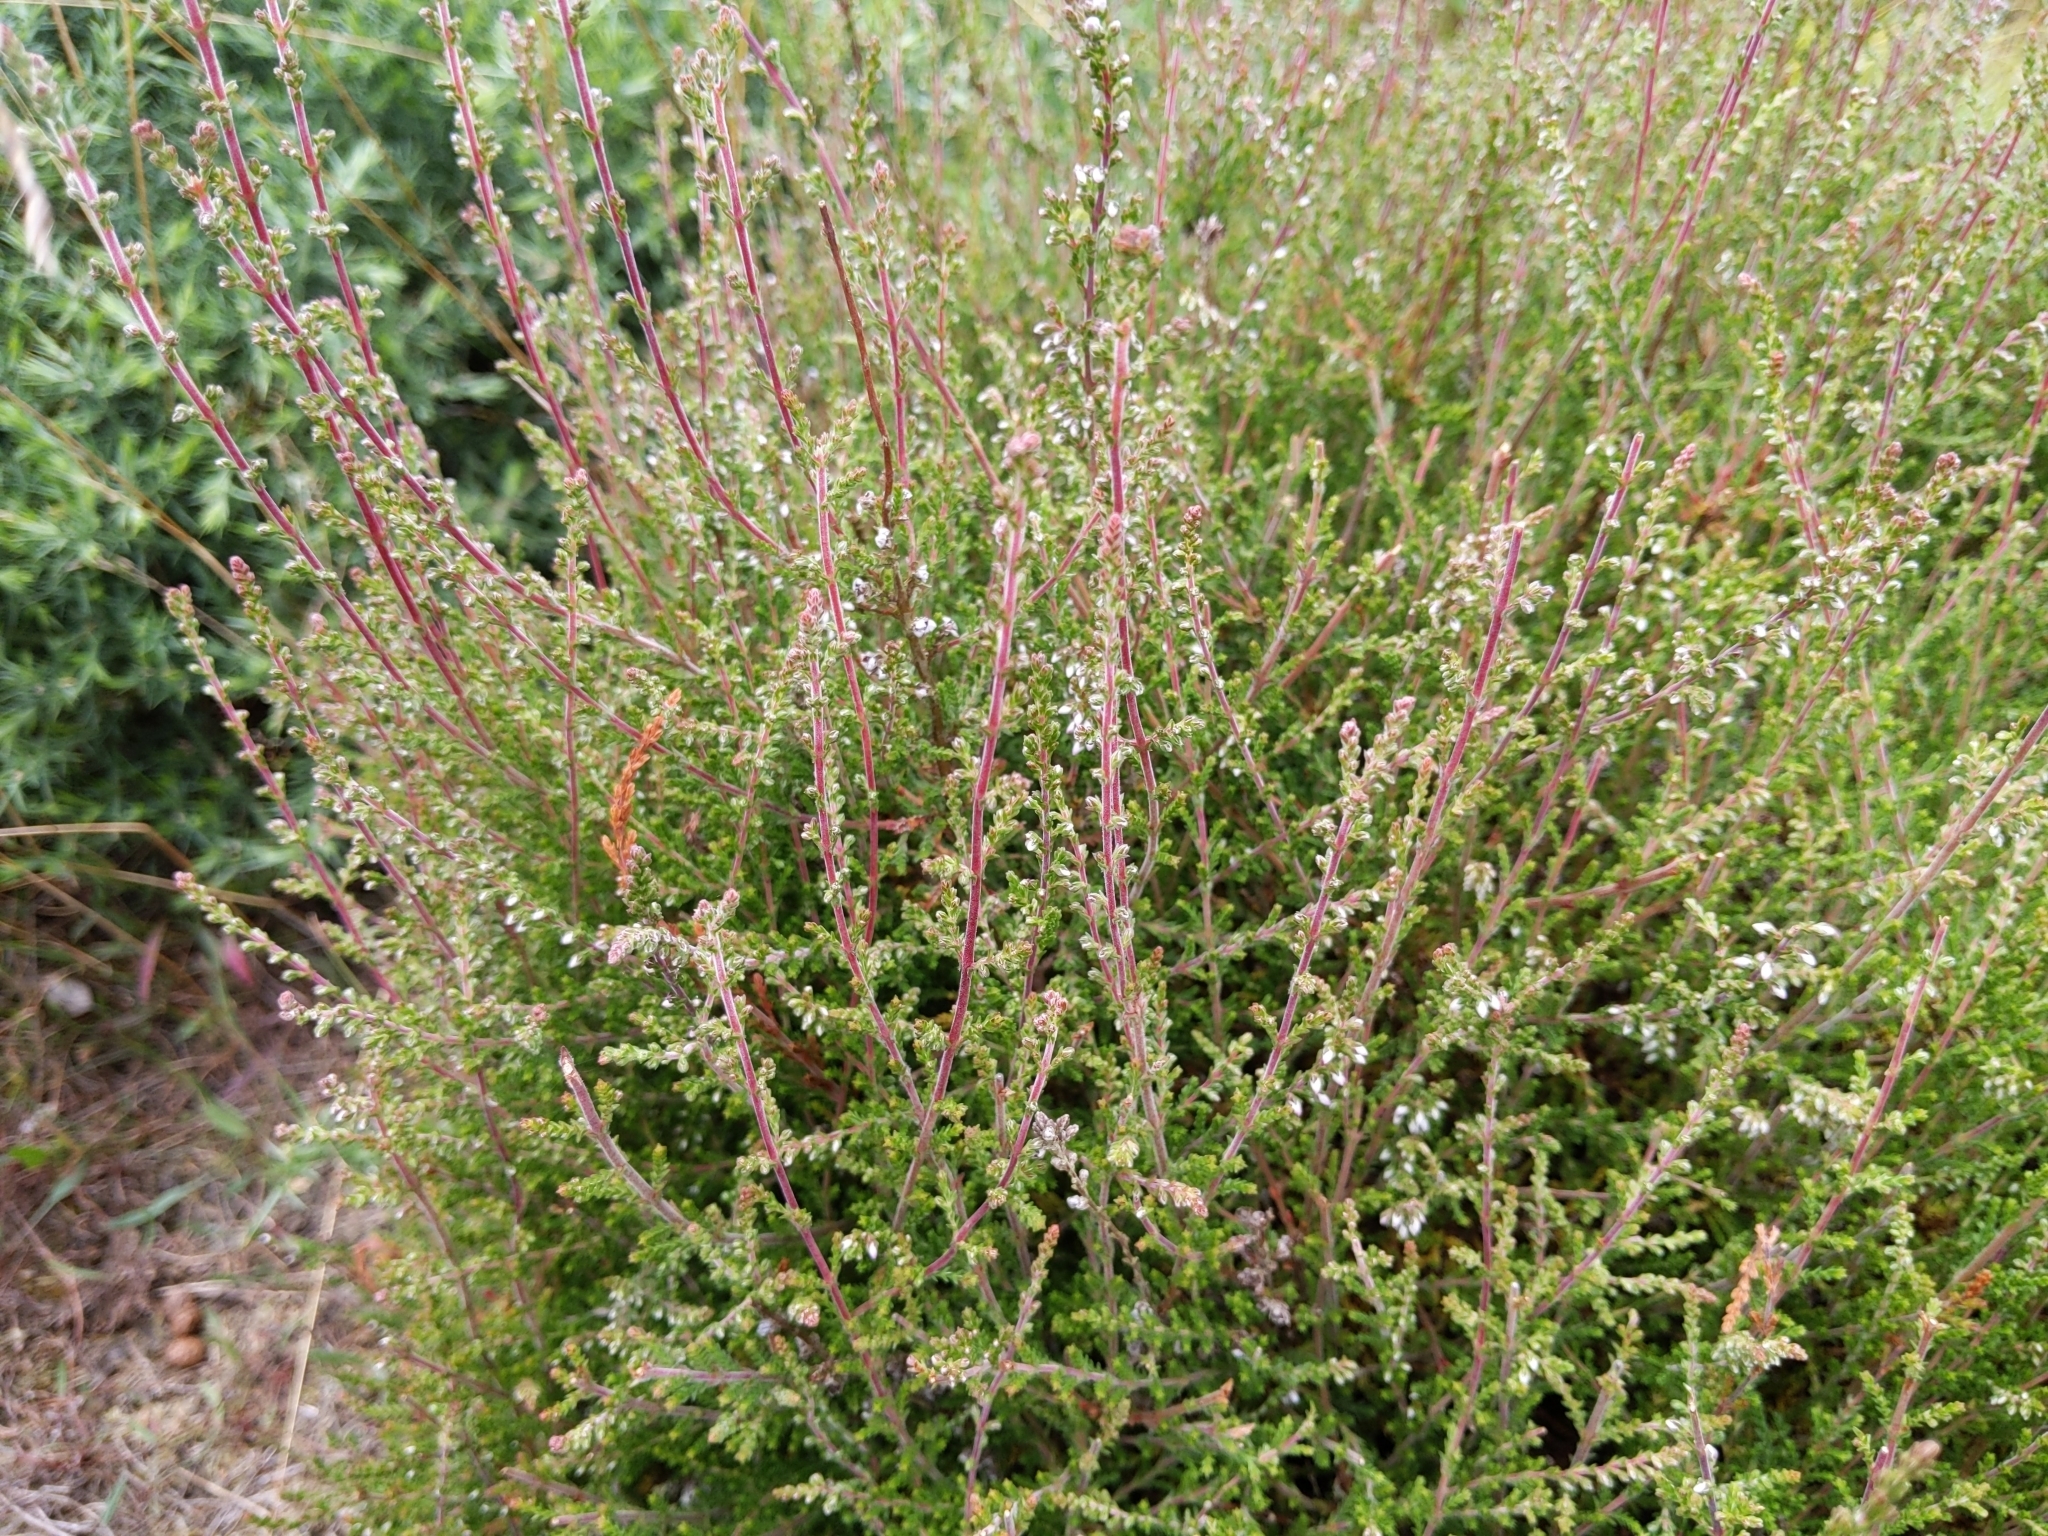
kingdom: Plantae
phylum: Tracheophyta
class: Magnoliopsida
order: Ericales
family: Ericaceae
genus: Calluna
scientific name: Calluna vulgaris
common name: Heather
